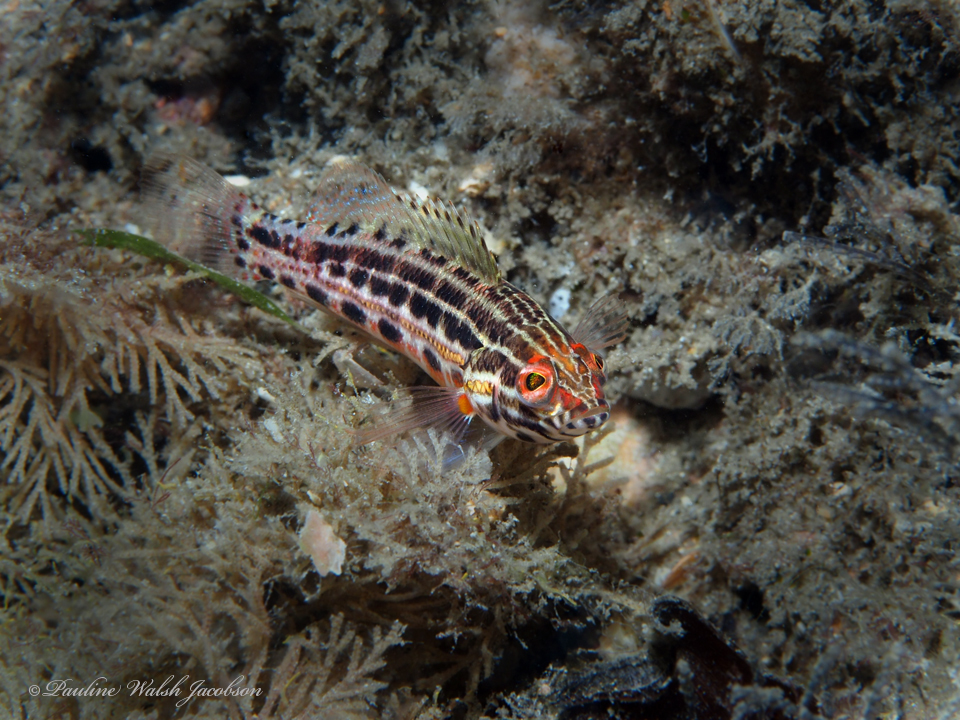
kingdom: Animalia
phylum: Chordata
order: Perciformes
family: Serranidae
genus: Serranus
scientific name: Serranus baldwini
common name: Lantern bass
